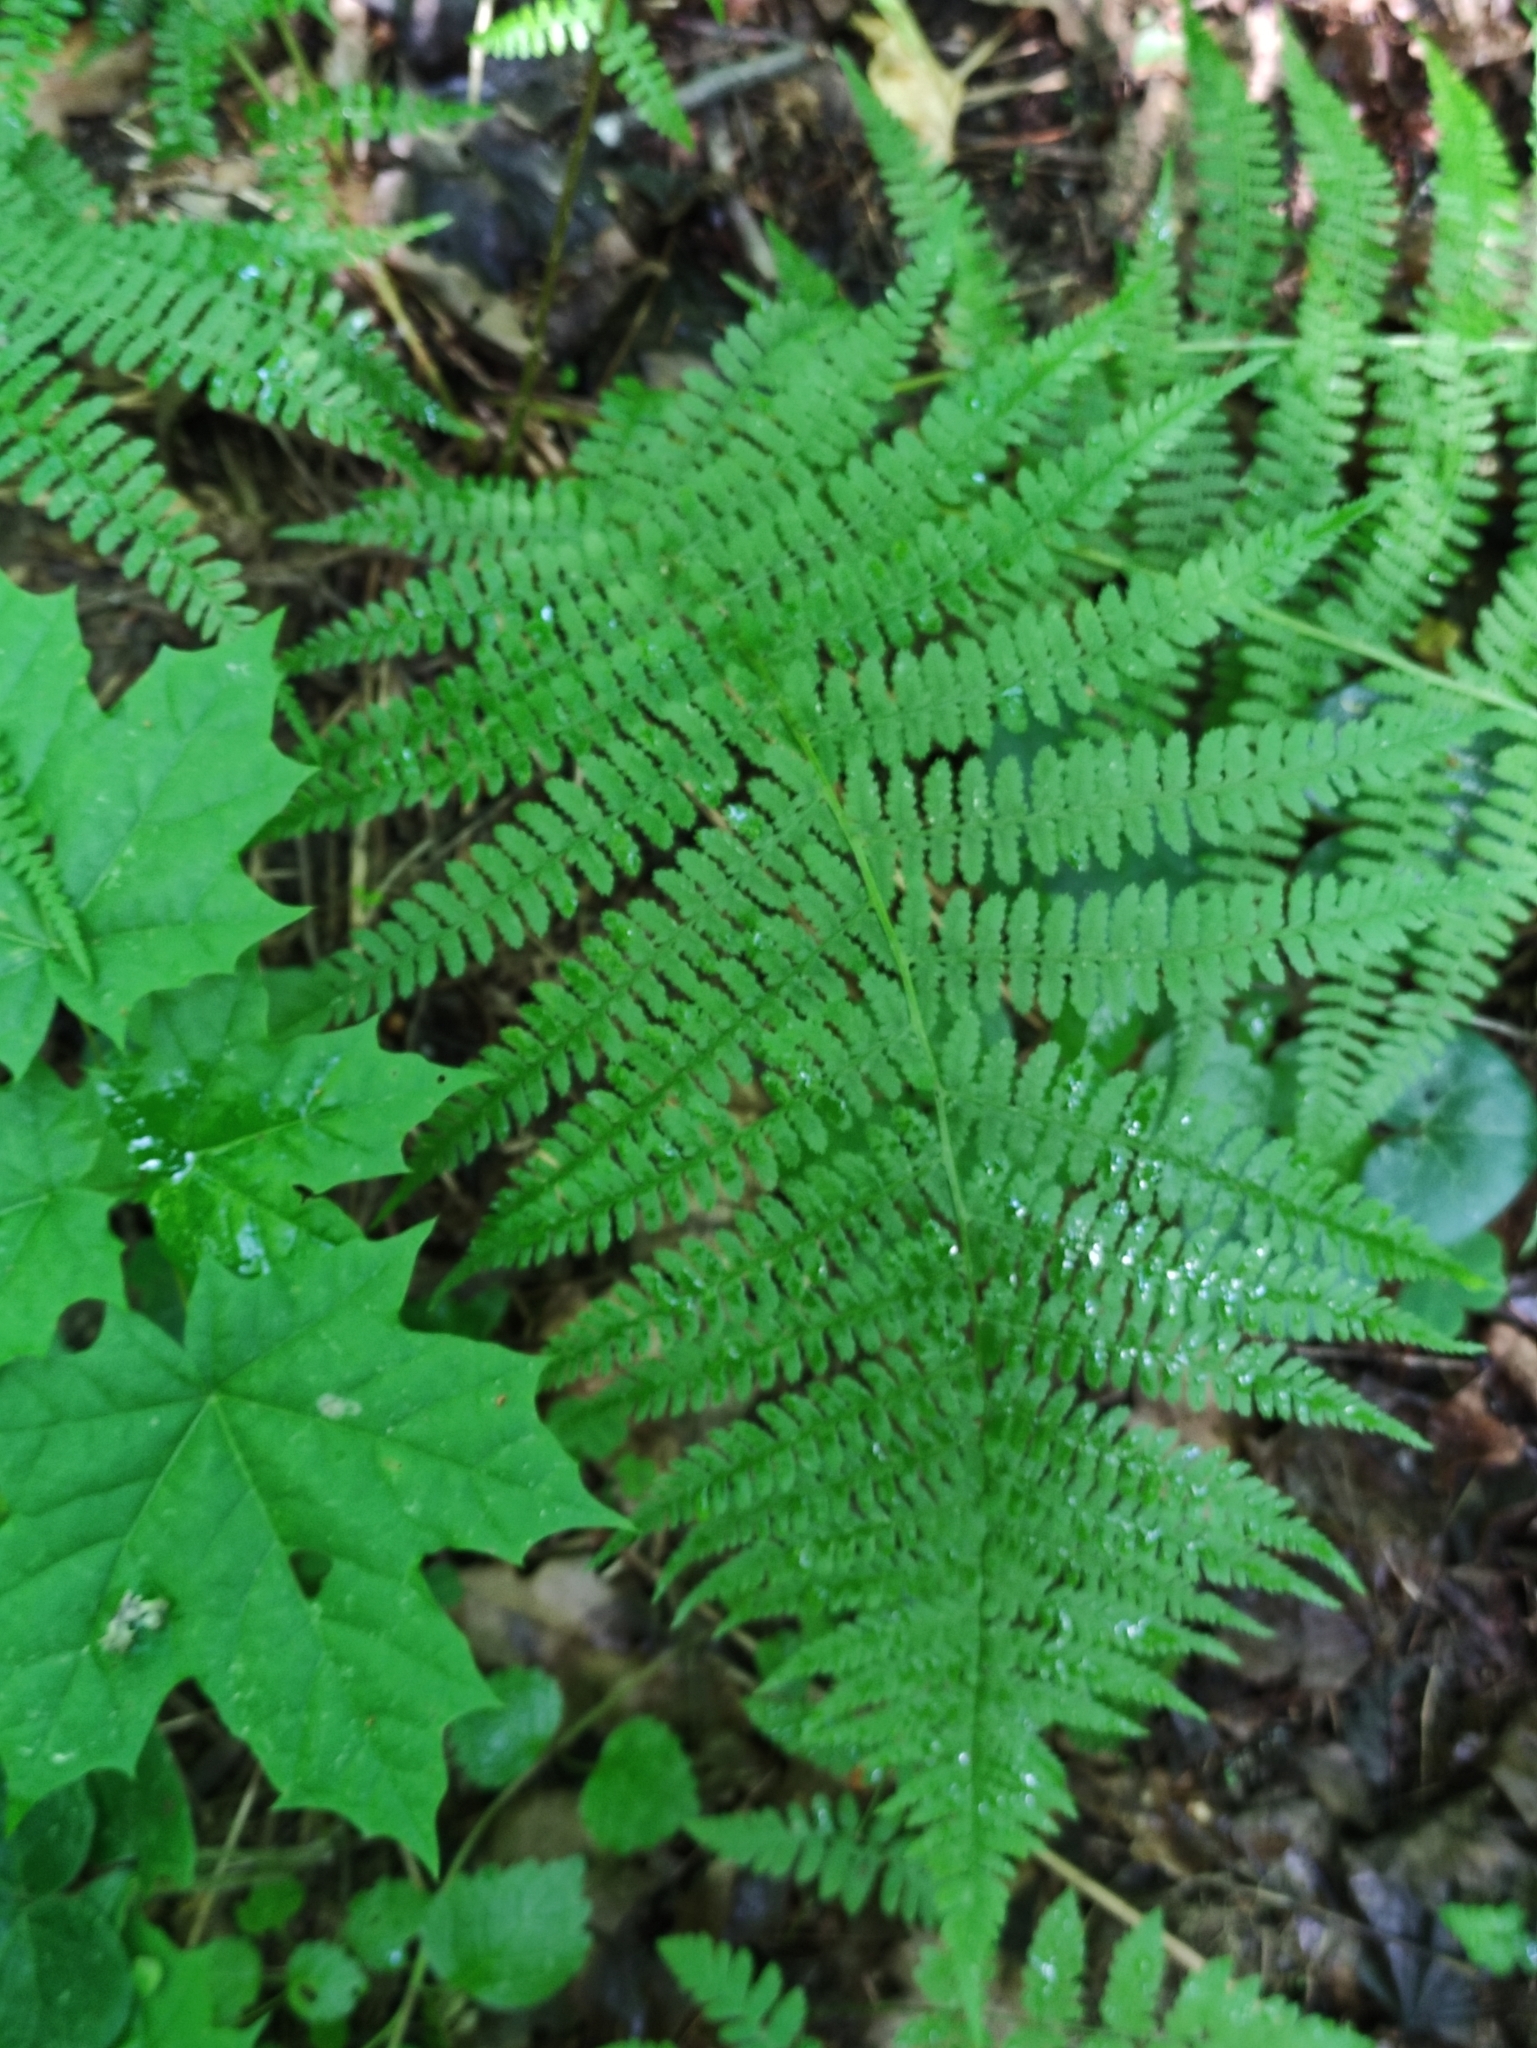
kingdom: Plantae
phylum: Tracheophyta
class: Polypodiopsida
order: Polypodiales
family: Athyriaceae
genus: Athyrium
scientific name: Athyrium filix-femina
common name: Lady fern
